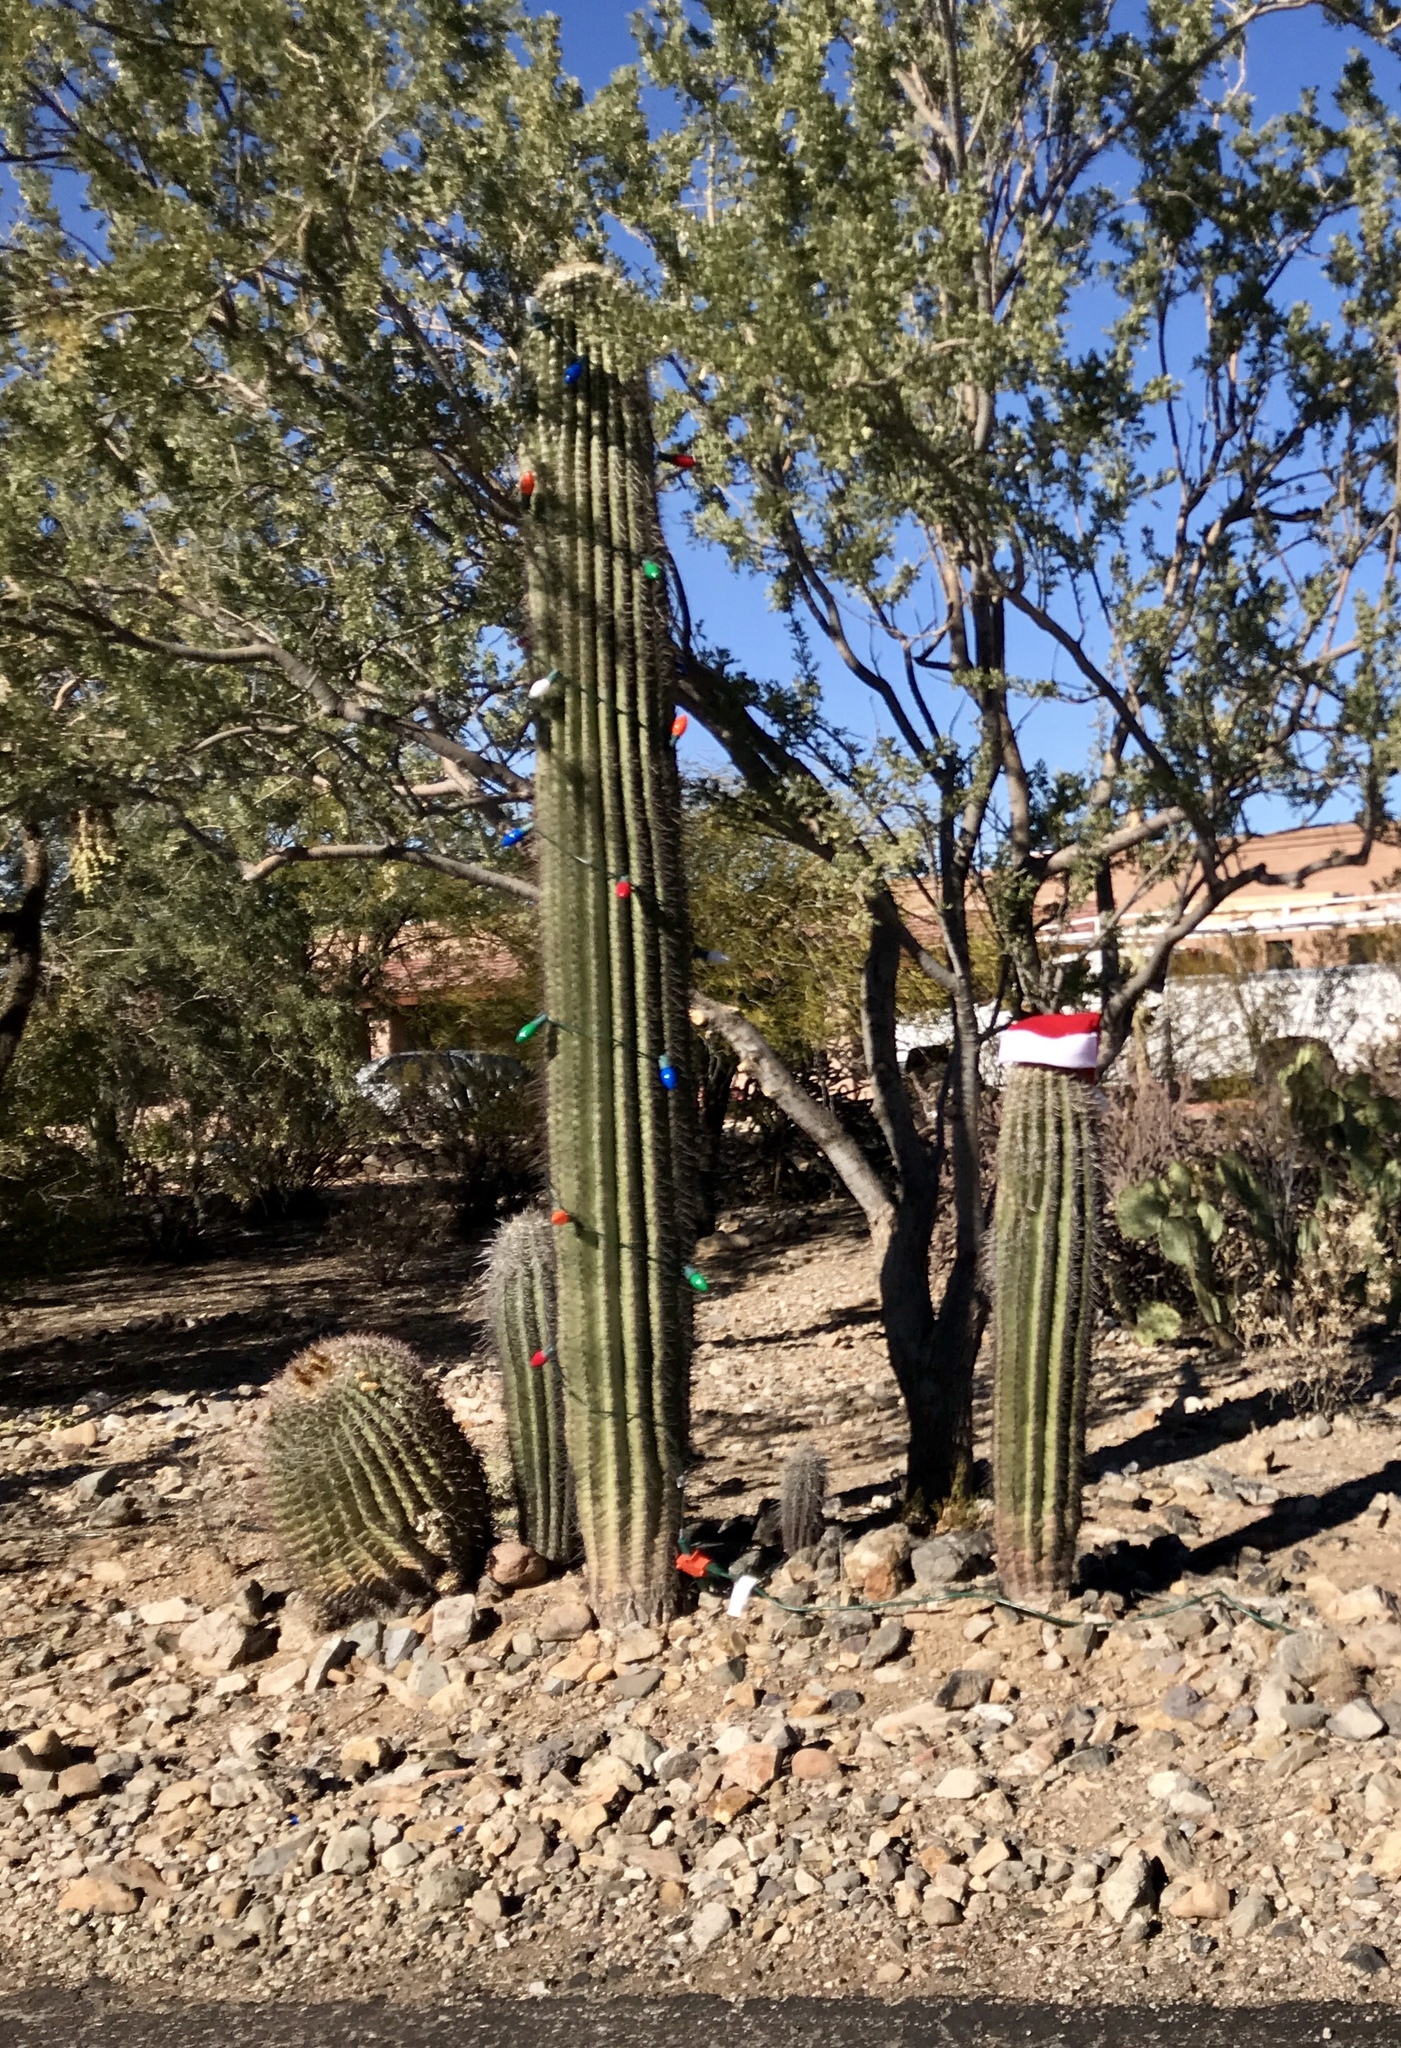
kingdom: Plantae
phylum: Tracheophyta
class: Magnoliopsida
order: Caryophyllales
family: Cactaceae
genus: Carnegiea
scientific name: Carnegiea gigantea
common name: Saguaro
